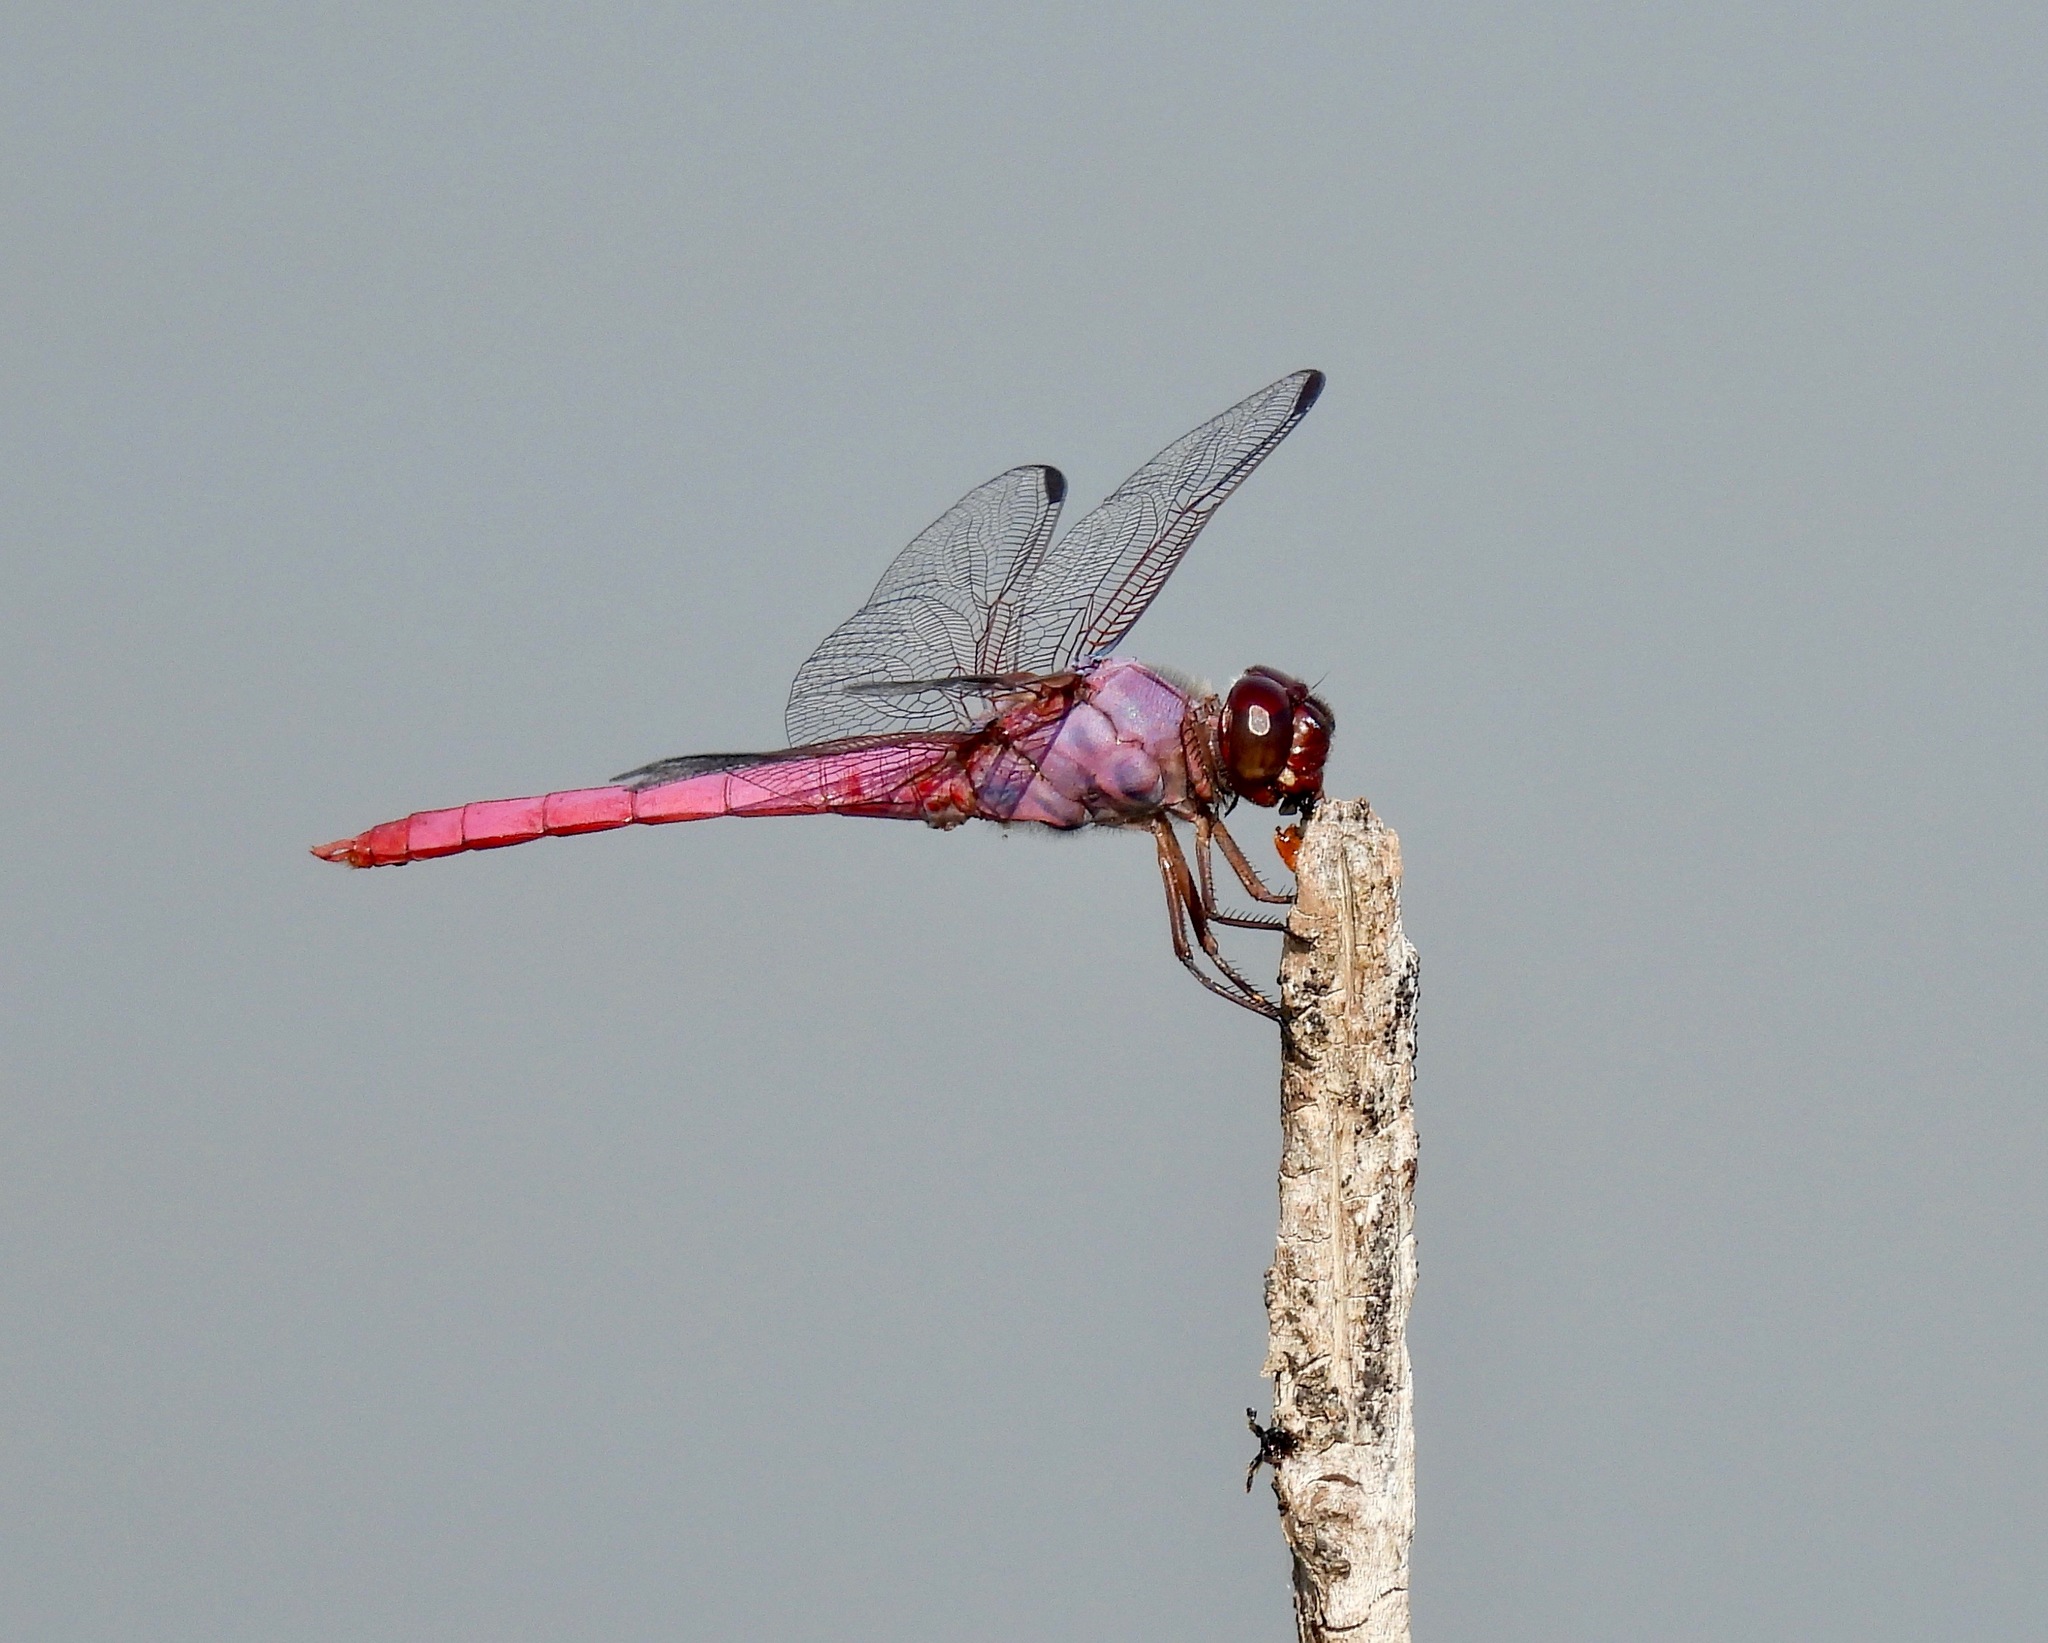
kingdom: Animalia
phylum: Arthropoda
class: Insecta
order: Odonata
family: Libellulidae
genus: Orthemis
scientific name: Orthemis ferruginea
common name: Roseate skimmer
